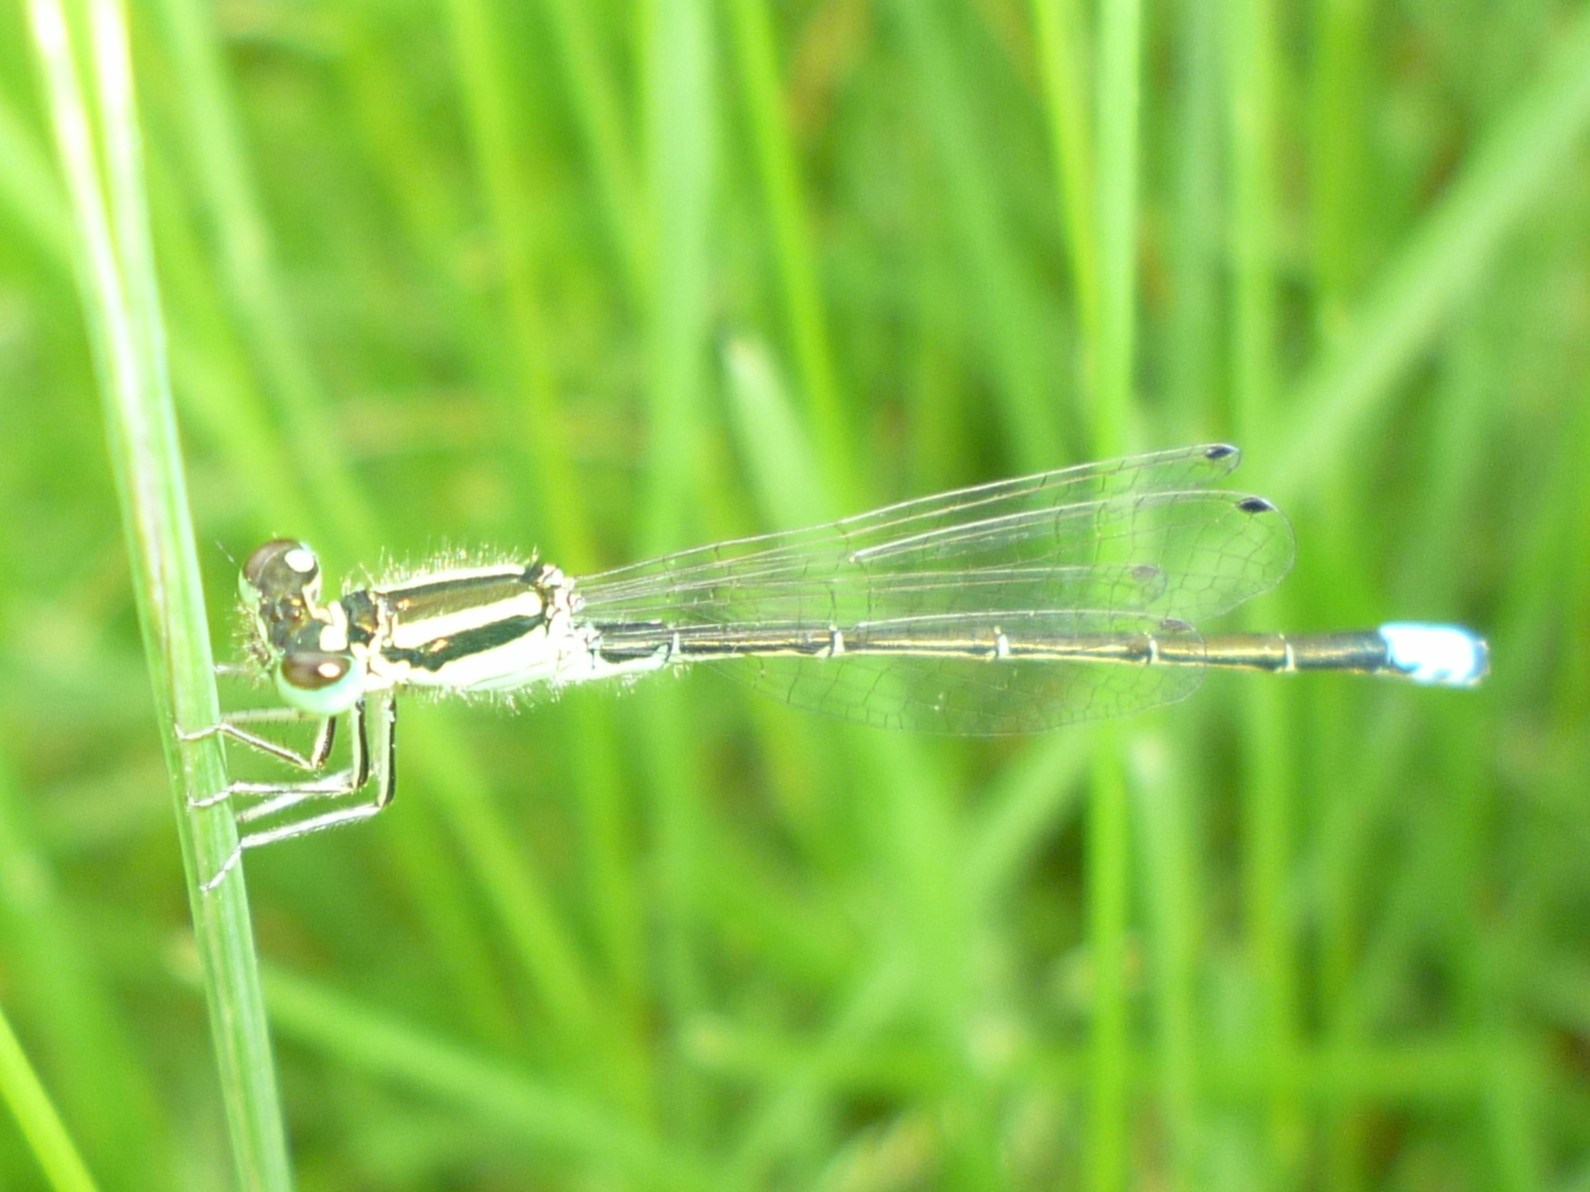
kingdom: Animalia
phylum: Arthropoda
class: Insecta
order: Odonata
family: Coenagrionidae
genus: Ischnura
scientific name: Ischnura verticalis
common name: Eastern forktail
